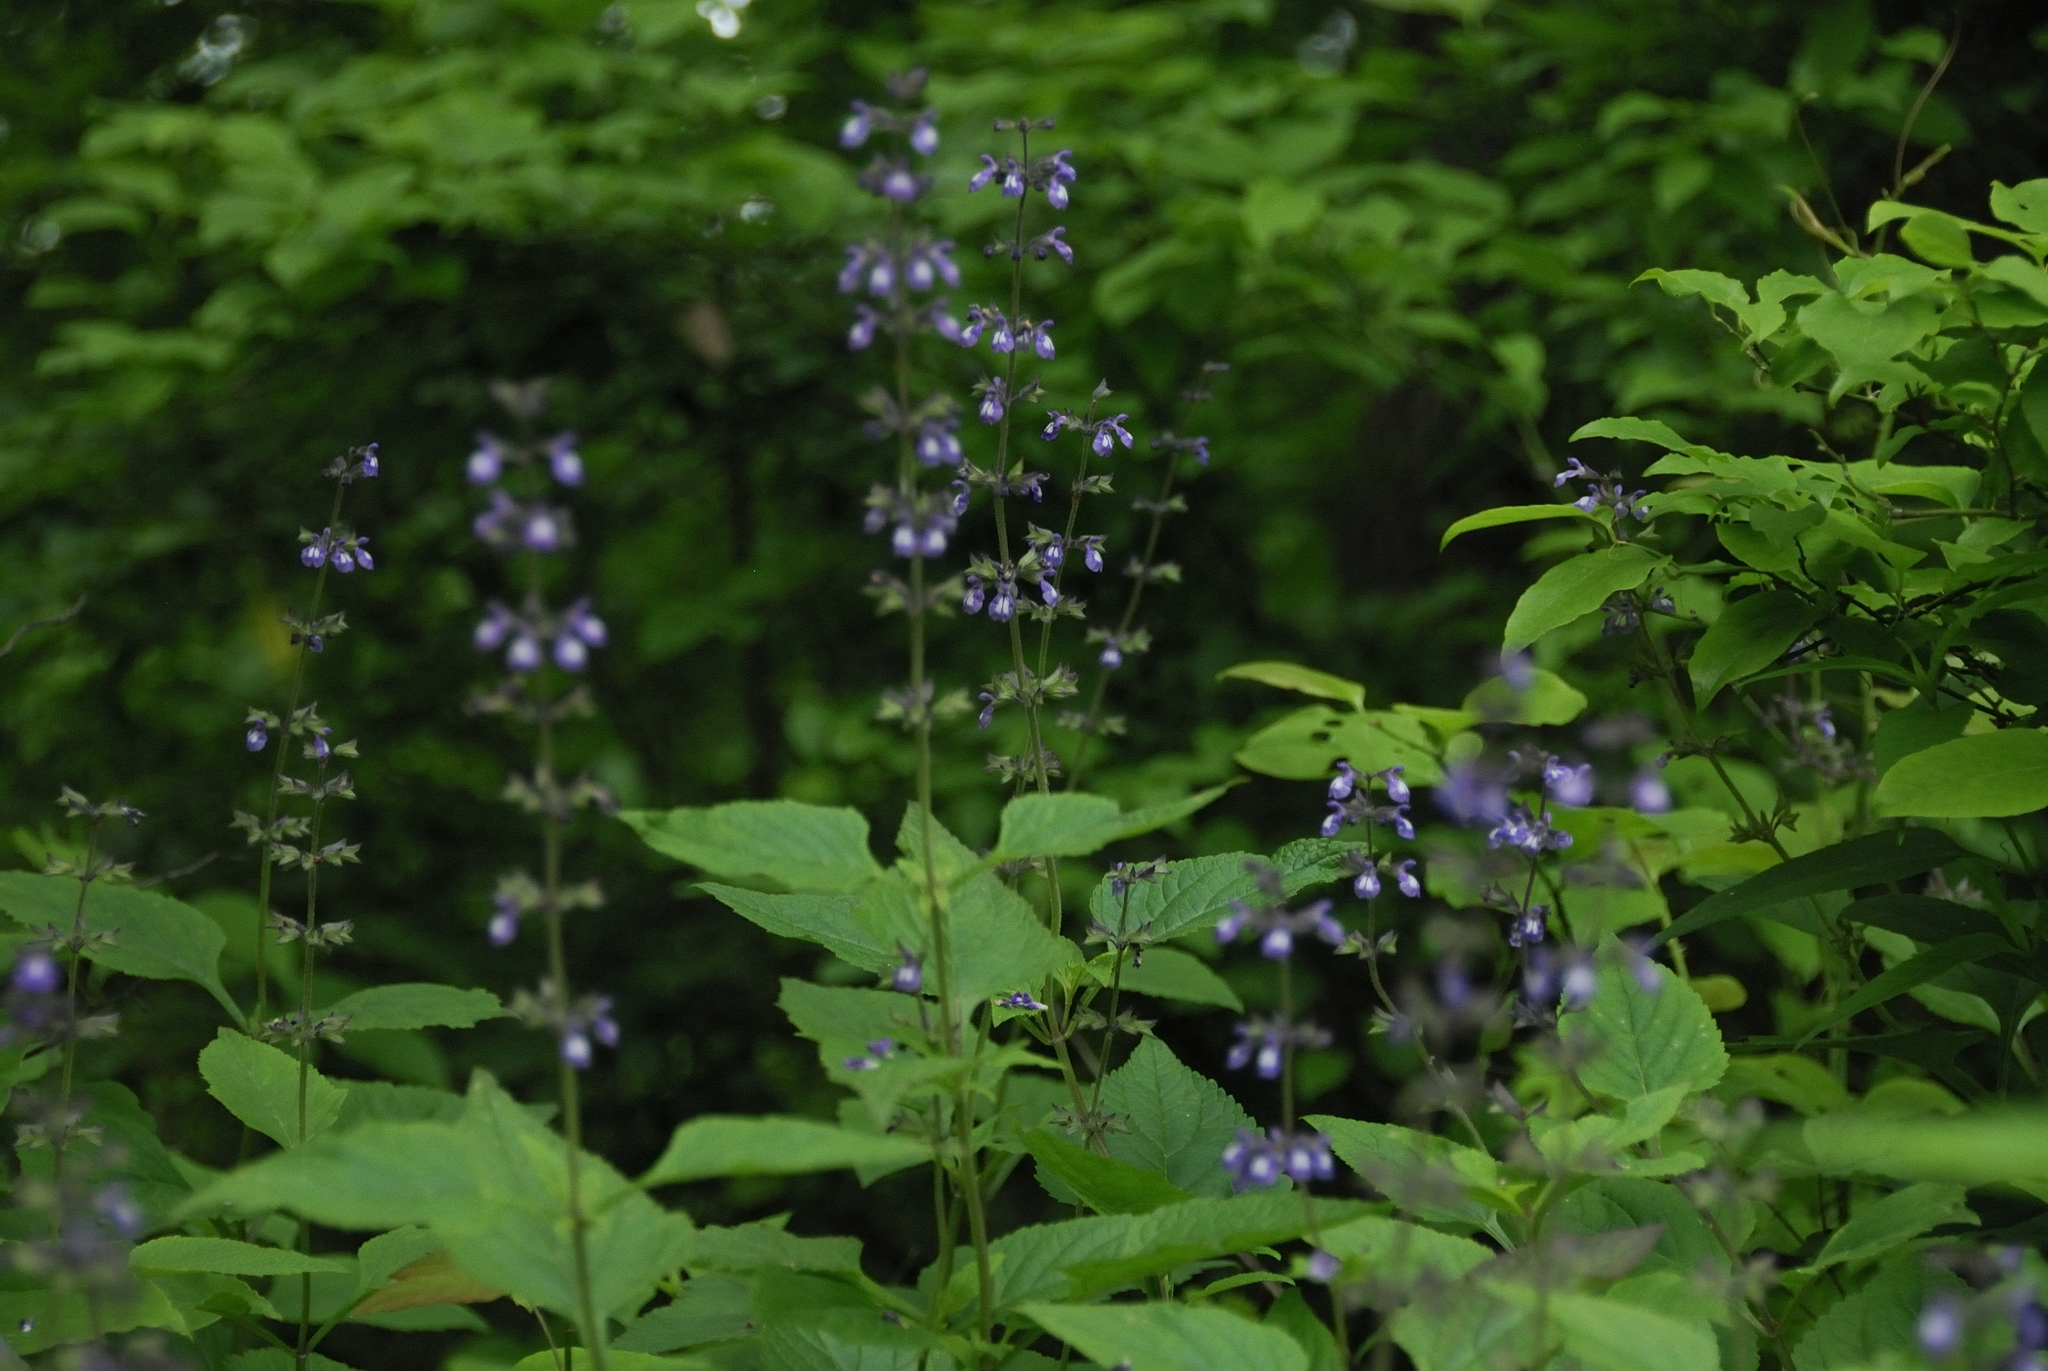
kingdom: Plantae
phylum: Tracheophyta
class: Magnoliopsida
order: Lamiales
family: Lamiaceae
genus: Salvia
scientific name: Salvia urticifolia
